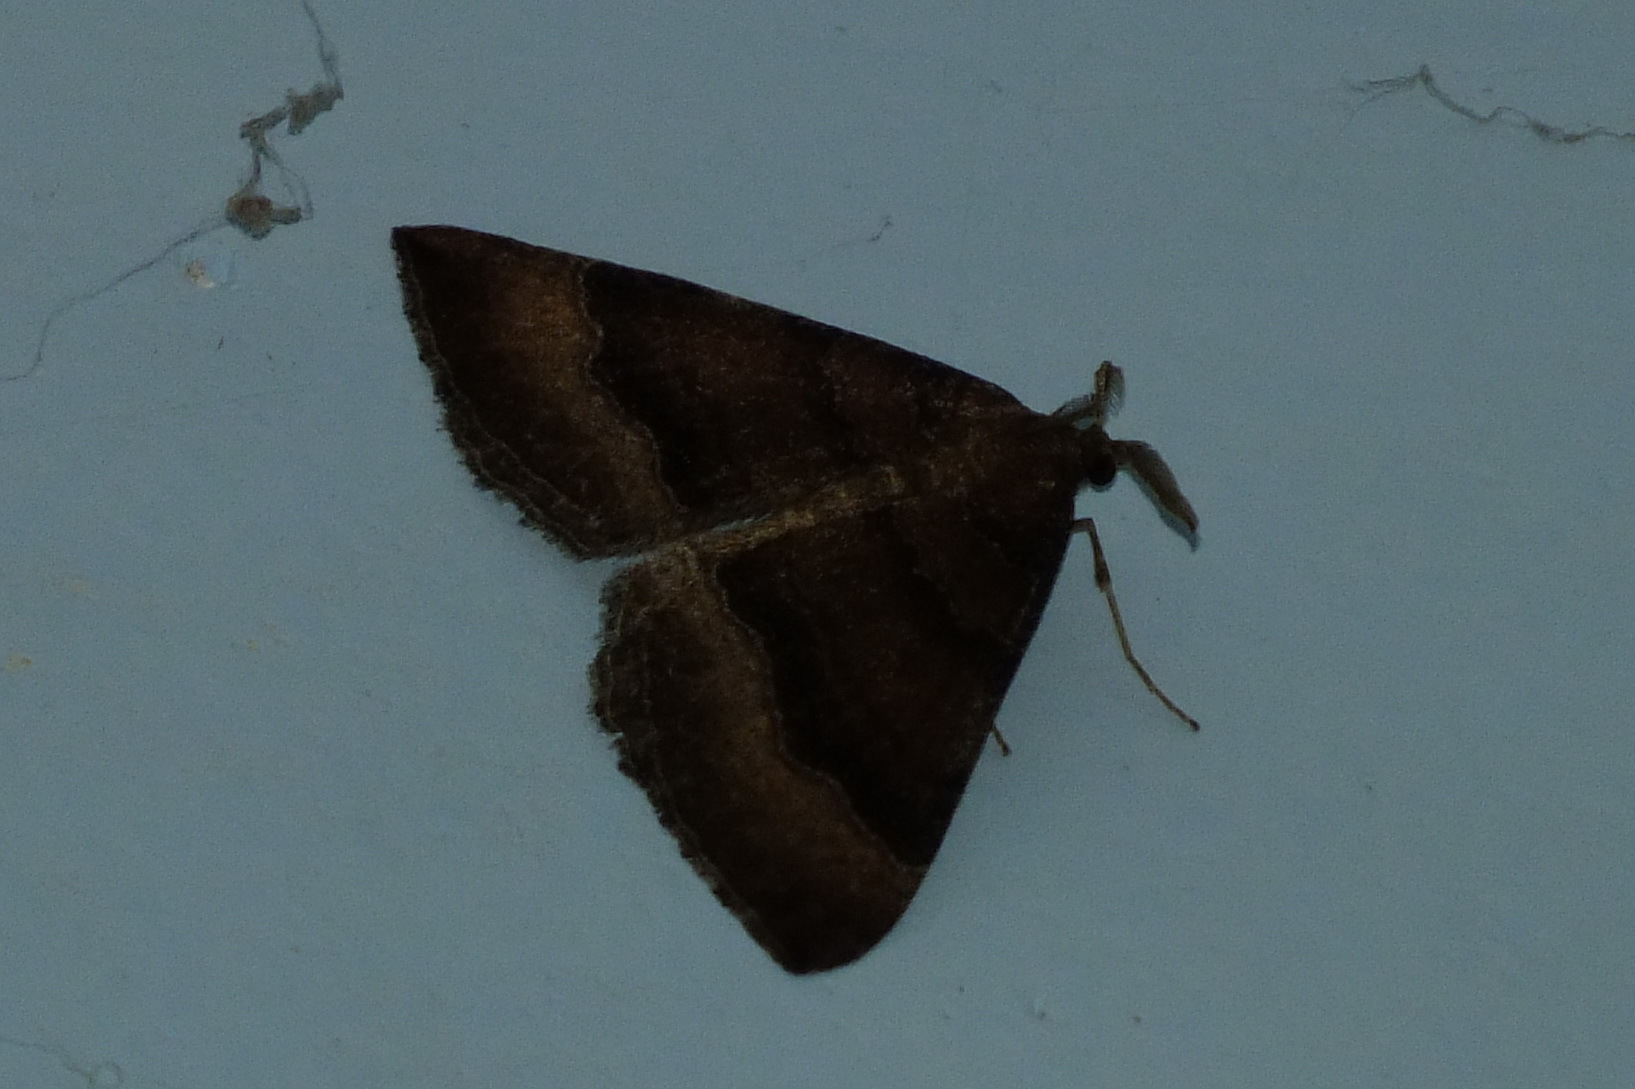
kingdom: Animalia
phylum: Arthropoda
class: Insecta
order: Lepidoptera
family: Geometridae
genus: Larentia
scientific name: Larentia clavaria
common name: Mallow
